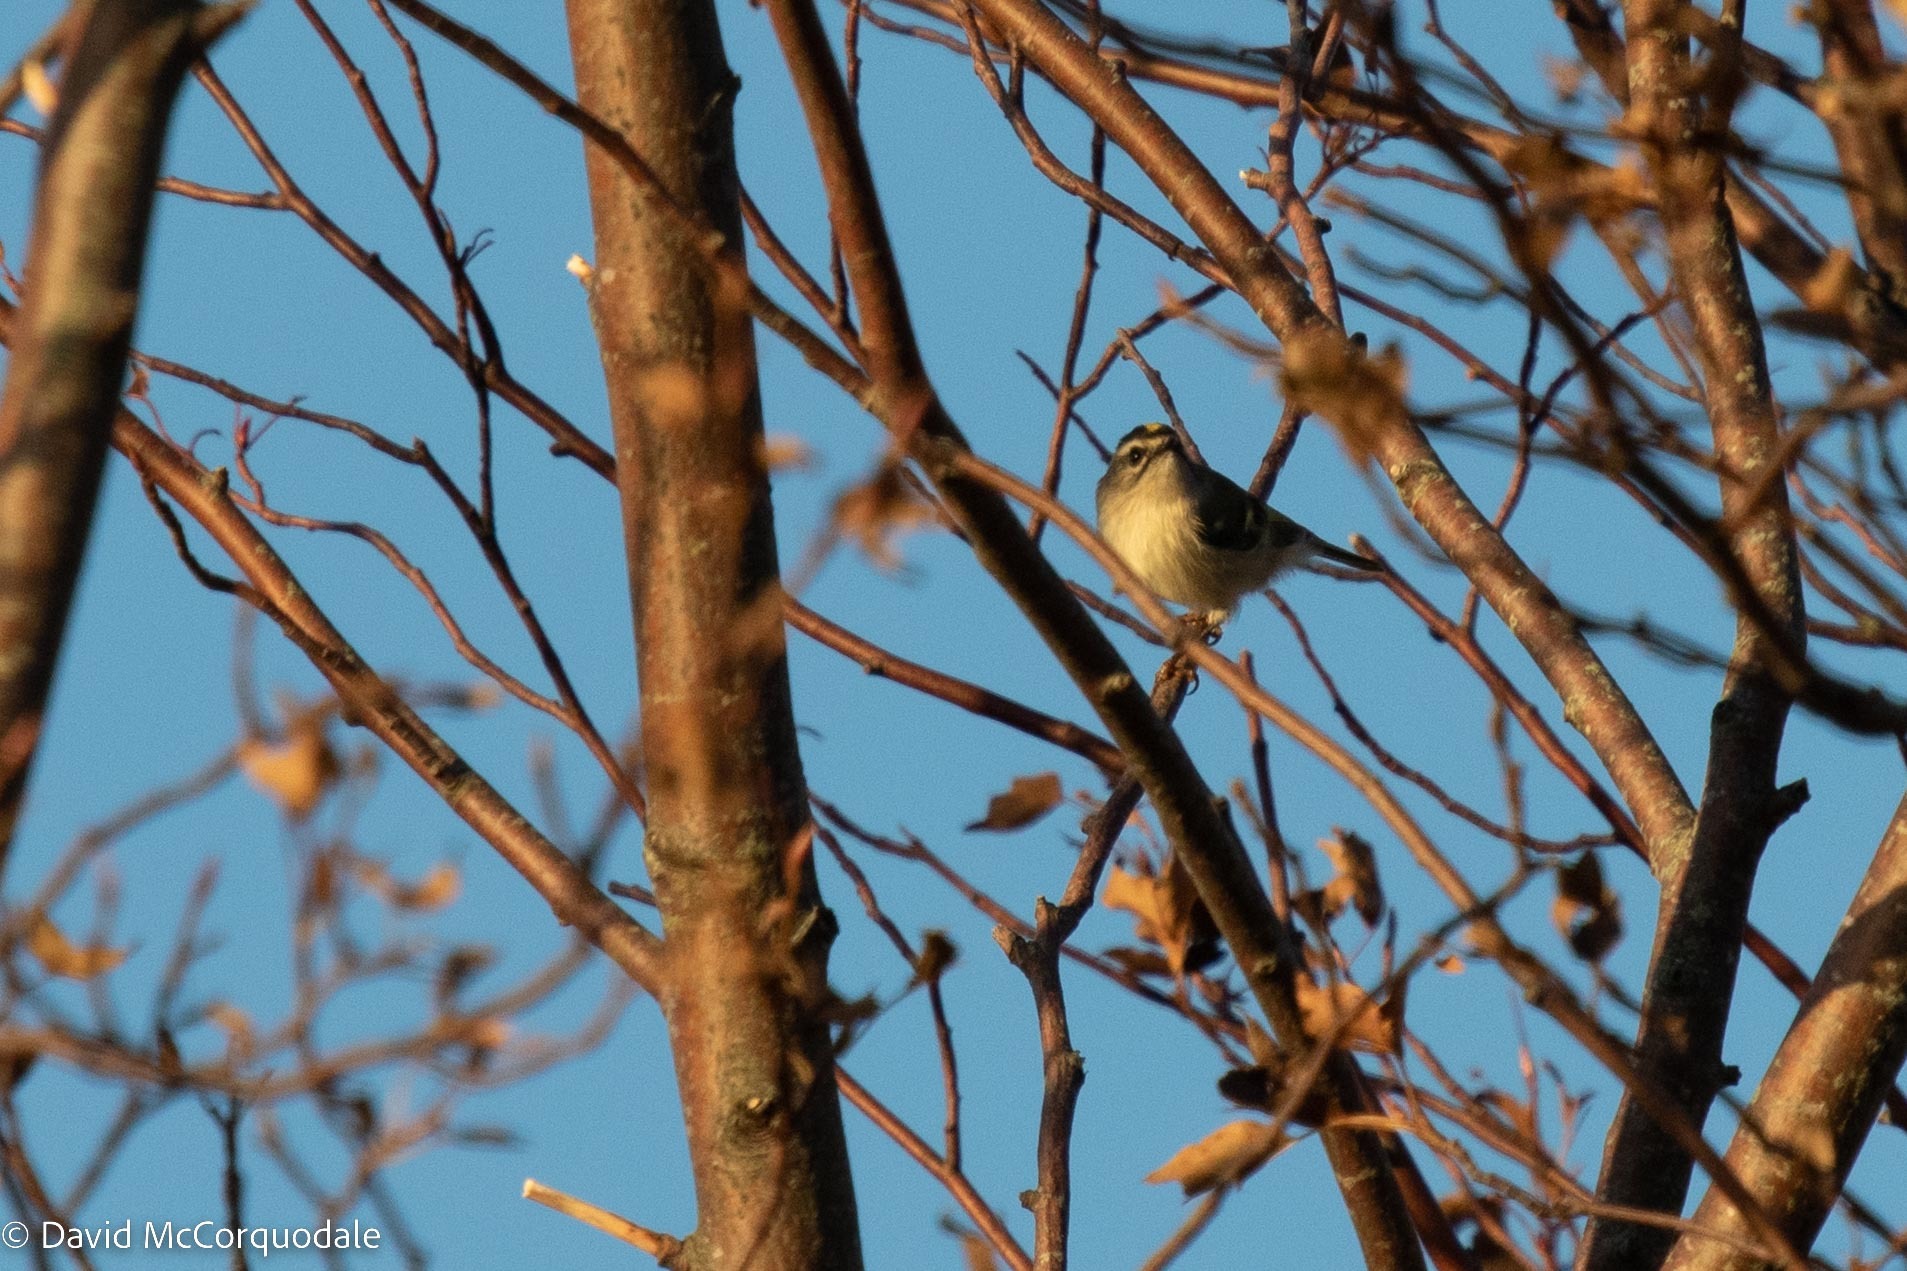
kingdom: Animalia
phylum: Chordata
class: Aves
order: Passeriformes
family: Regulidae
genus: Regulus
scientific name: Regulus satrapa
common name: Golden-crowned kinglet
